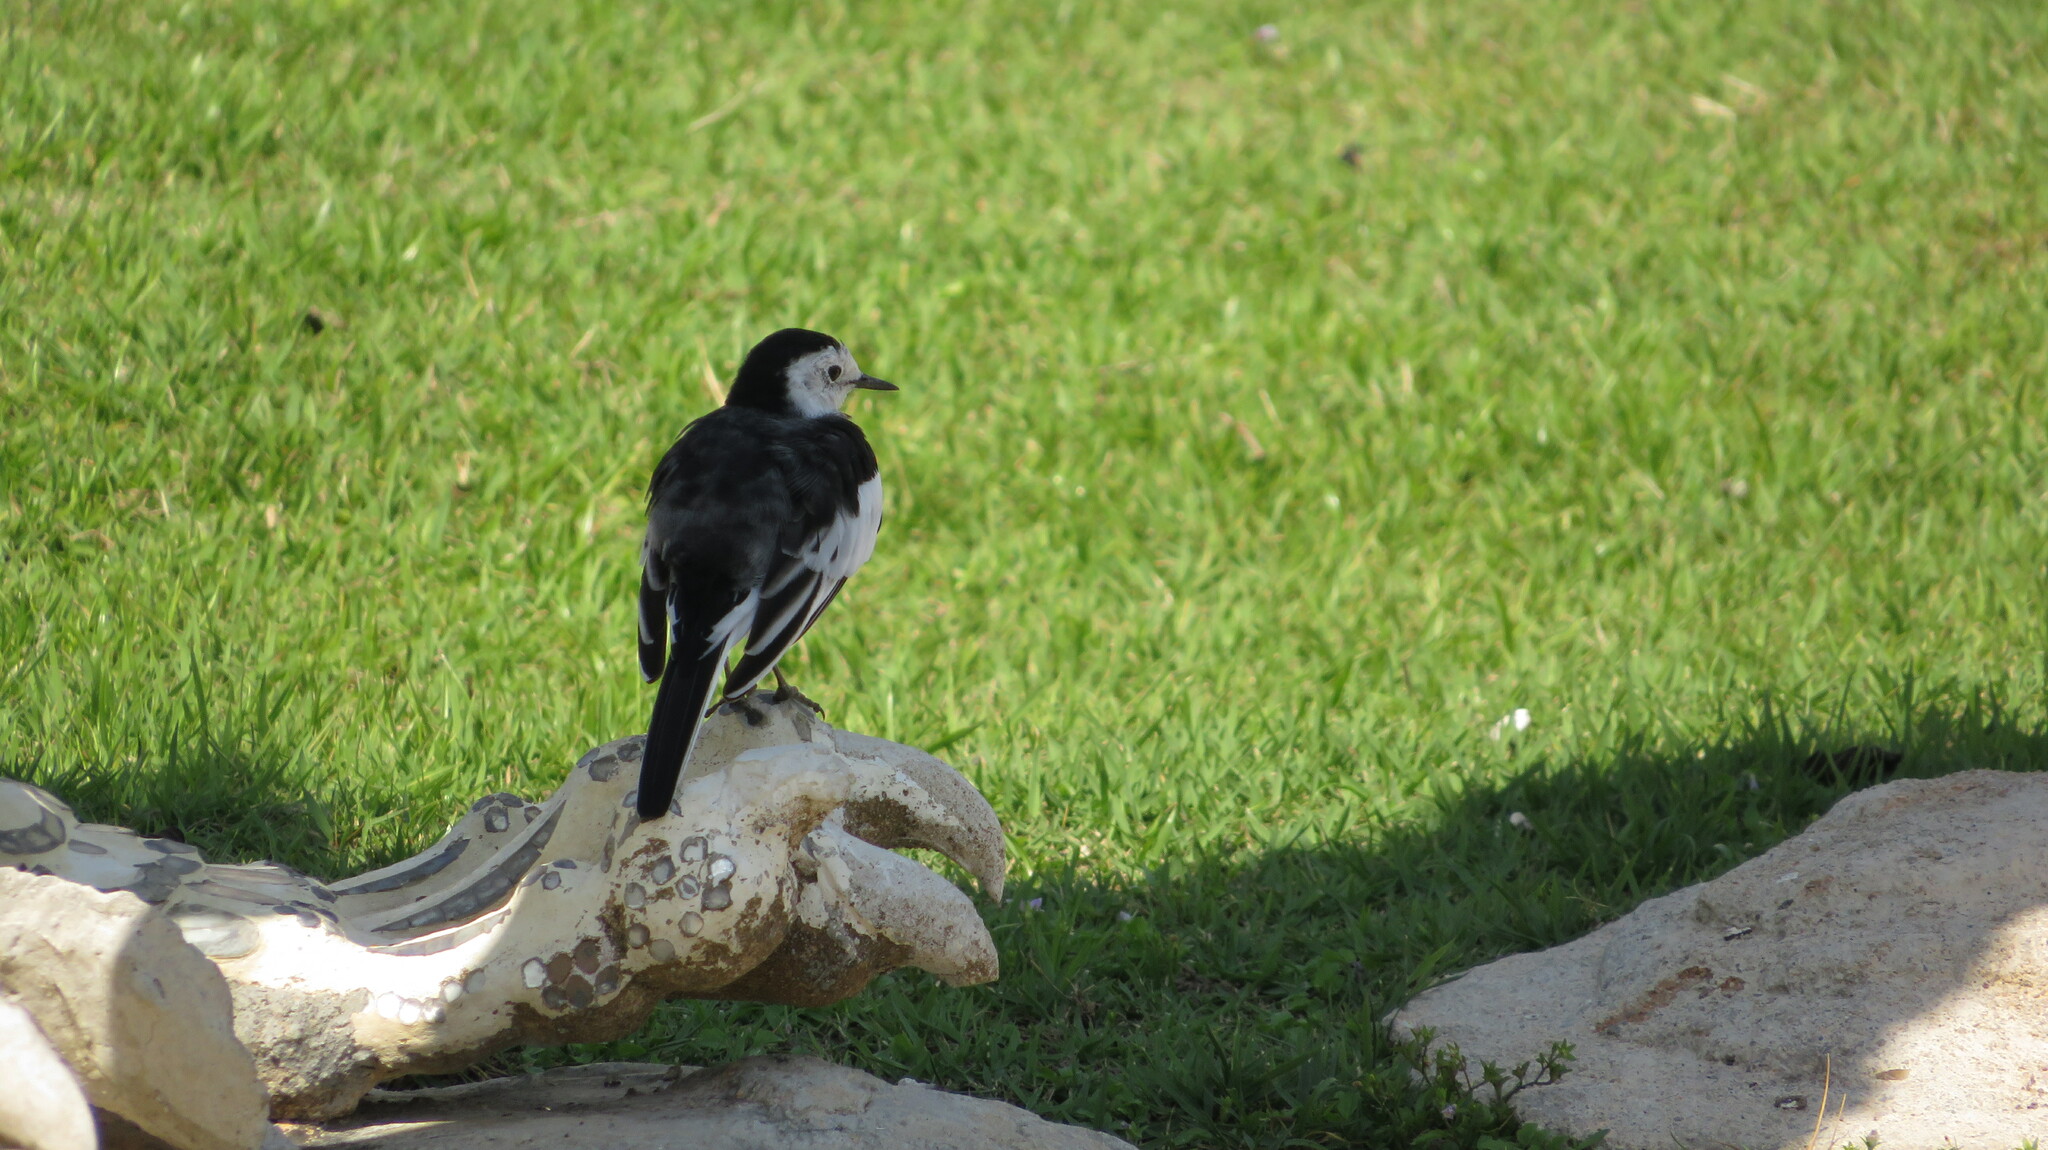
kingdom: Animalia
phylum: Chordata
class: Aves
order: Passeriformes
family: Motacillidae
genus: Motacilla
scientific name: Motacilla alba
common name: White wagtail
